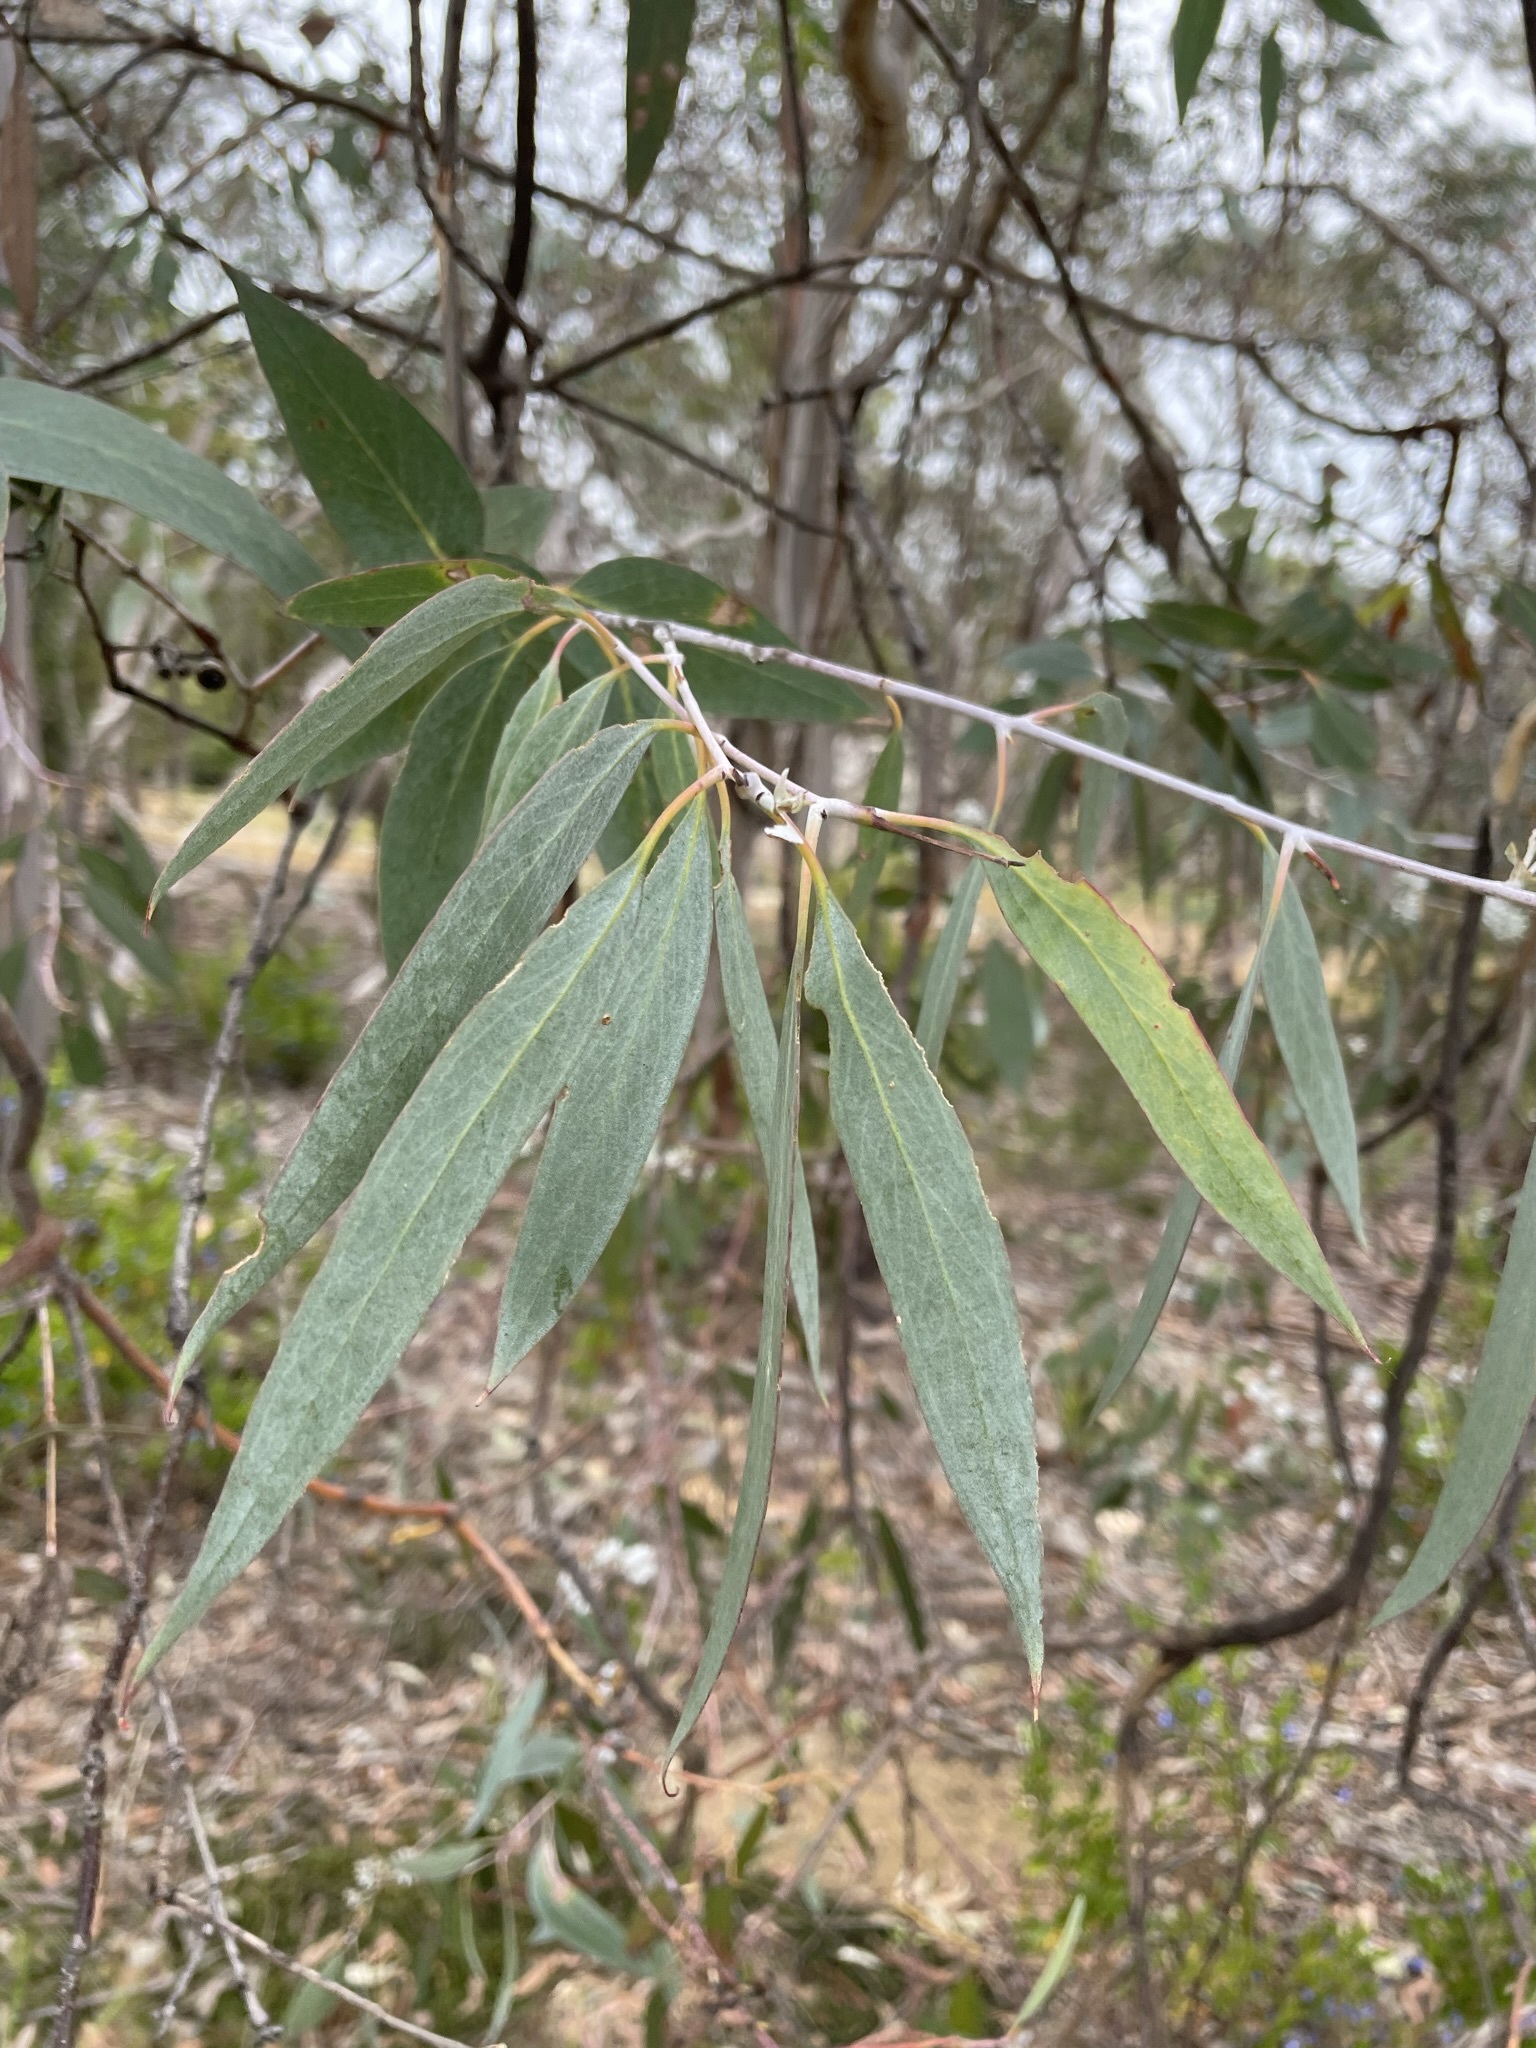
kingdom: Plantae
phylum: Tracheophyta
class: Magnoliopsida
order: Myrtales
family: Myrtaceae
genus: Eucalyptus
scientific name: Eucalyptus tenuiramis
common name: Silver peppermint
